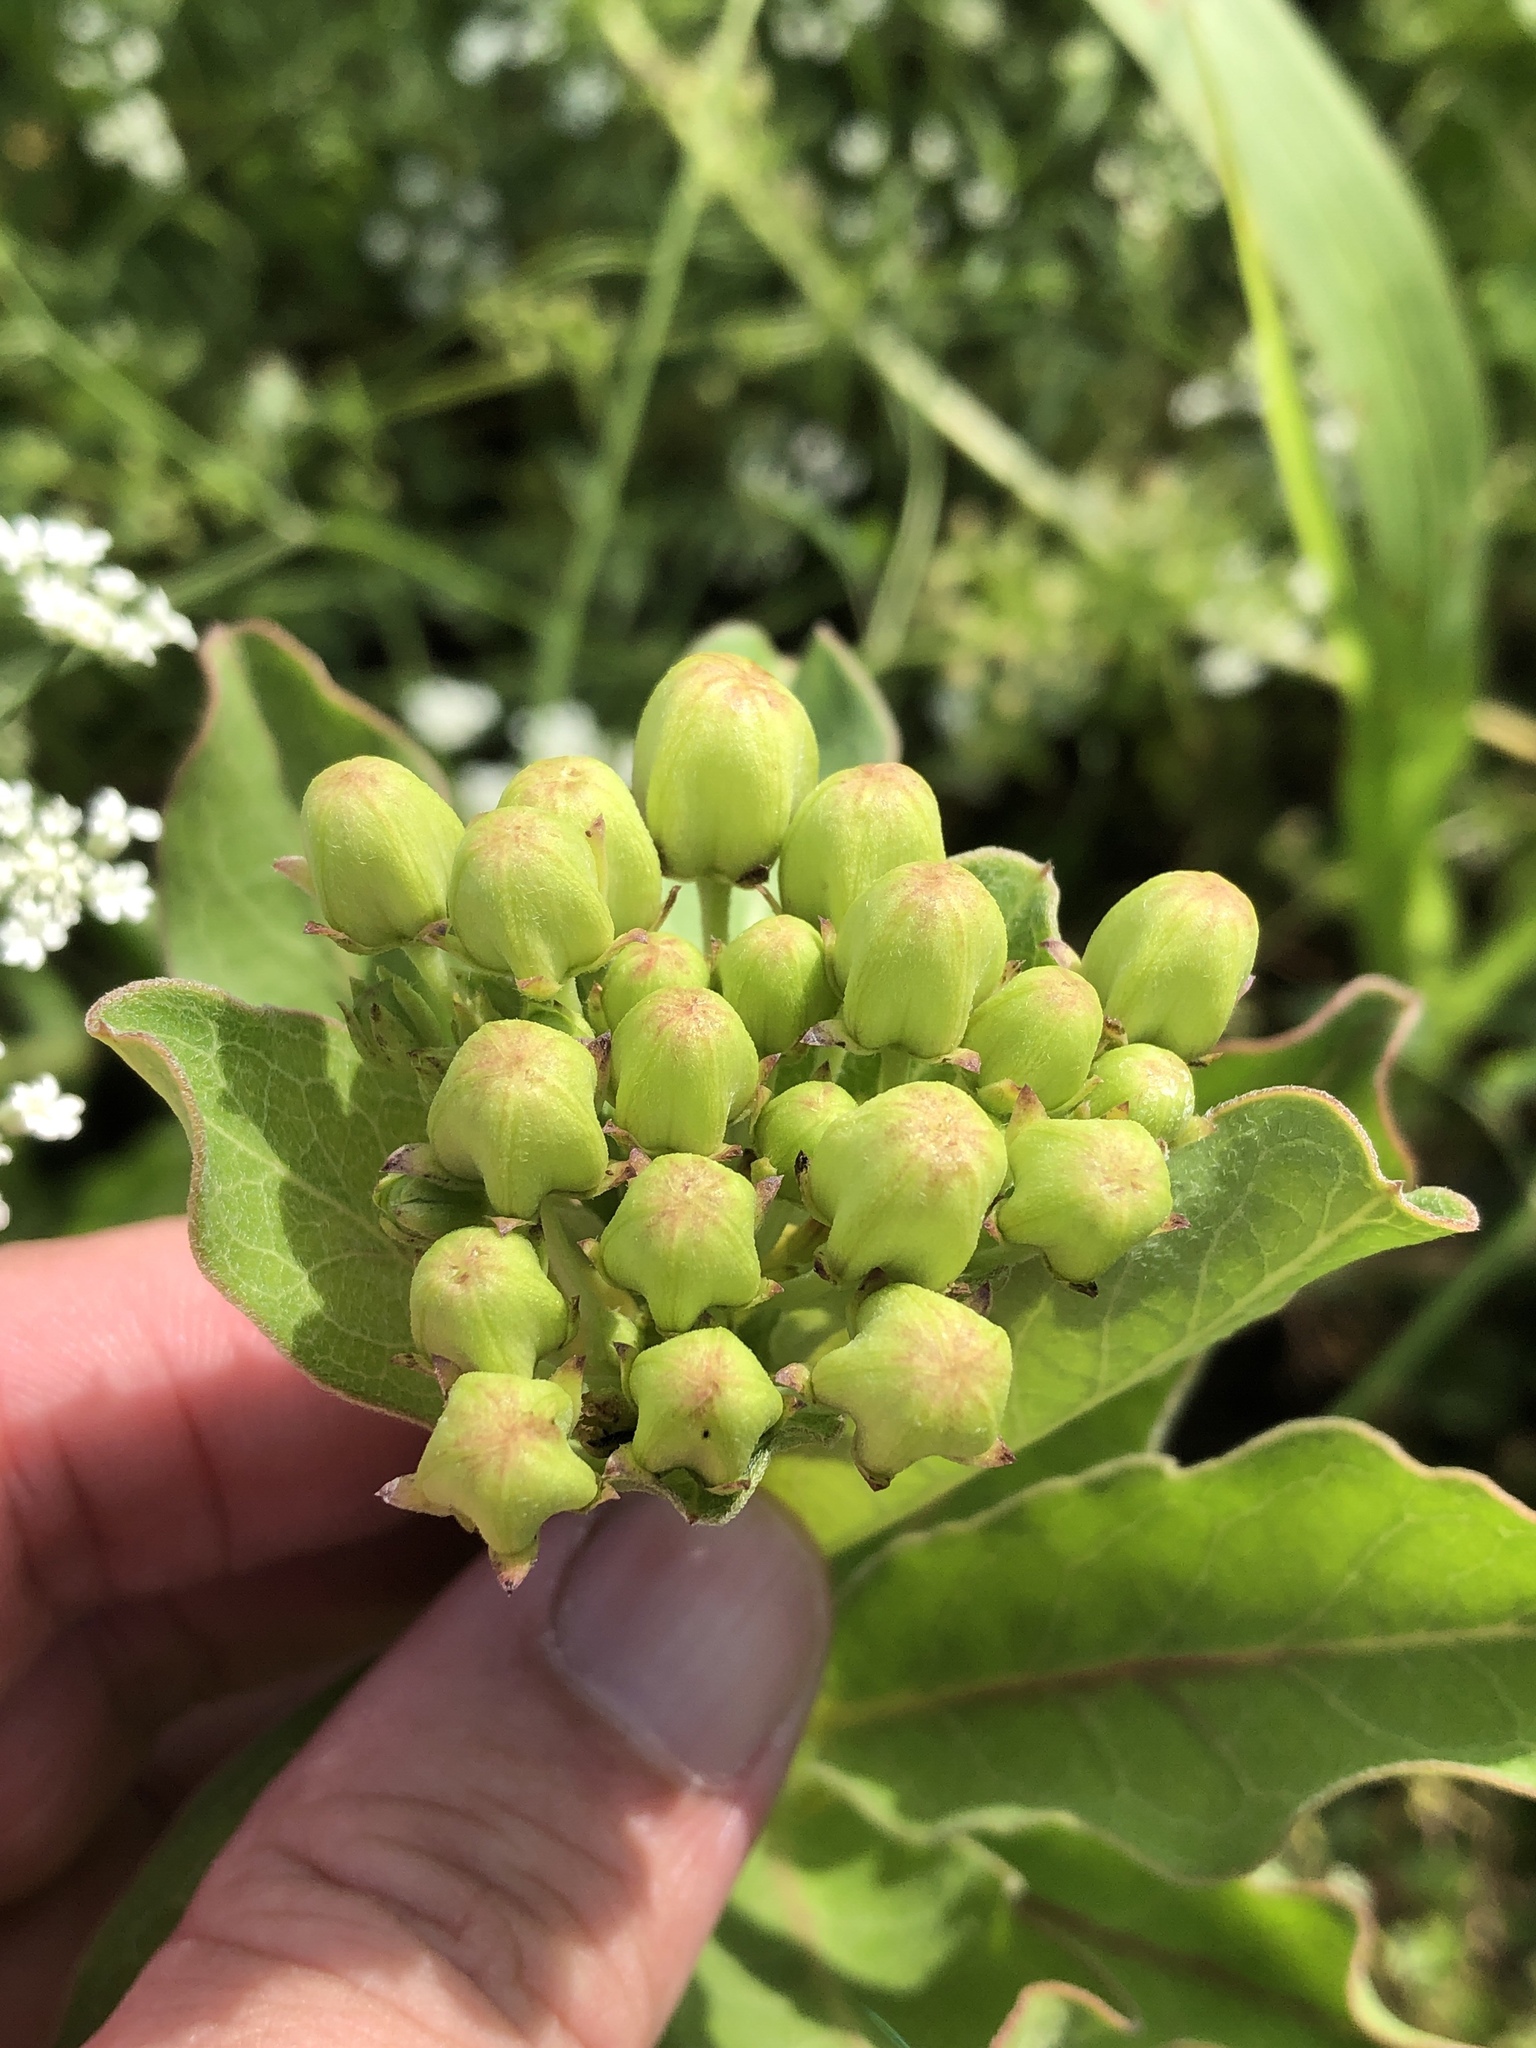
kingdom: Plantae
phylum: Tracheophyta
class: Magnoliopsida
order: Gentianales
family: Apocynaceae
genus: Asclepias
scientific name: Asclepias viridis
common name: Antelope-horns
